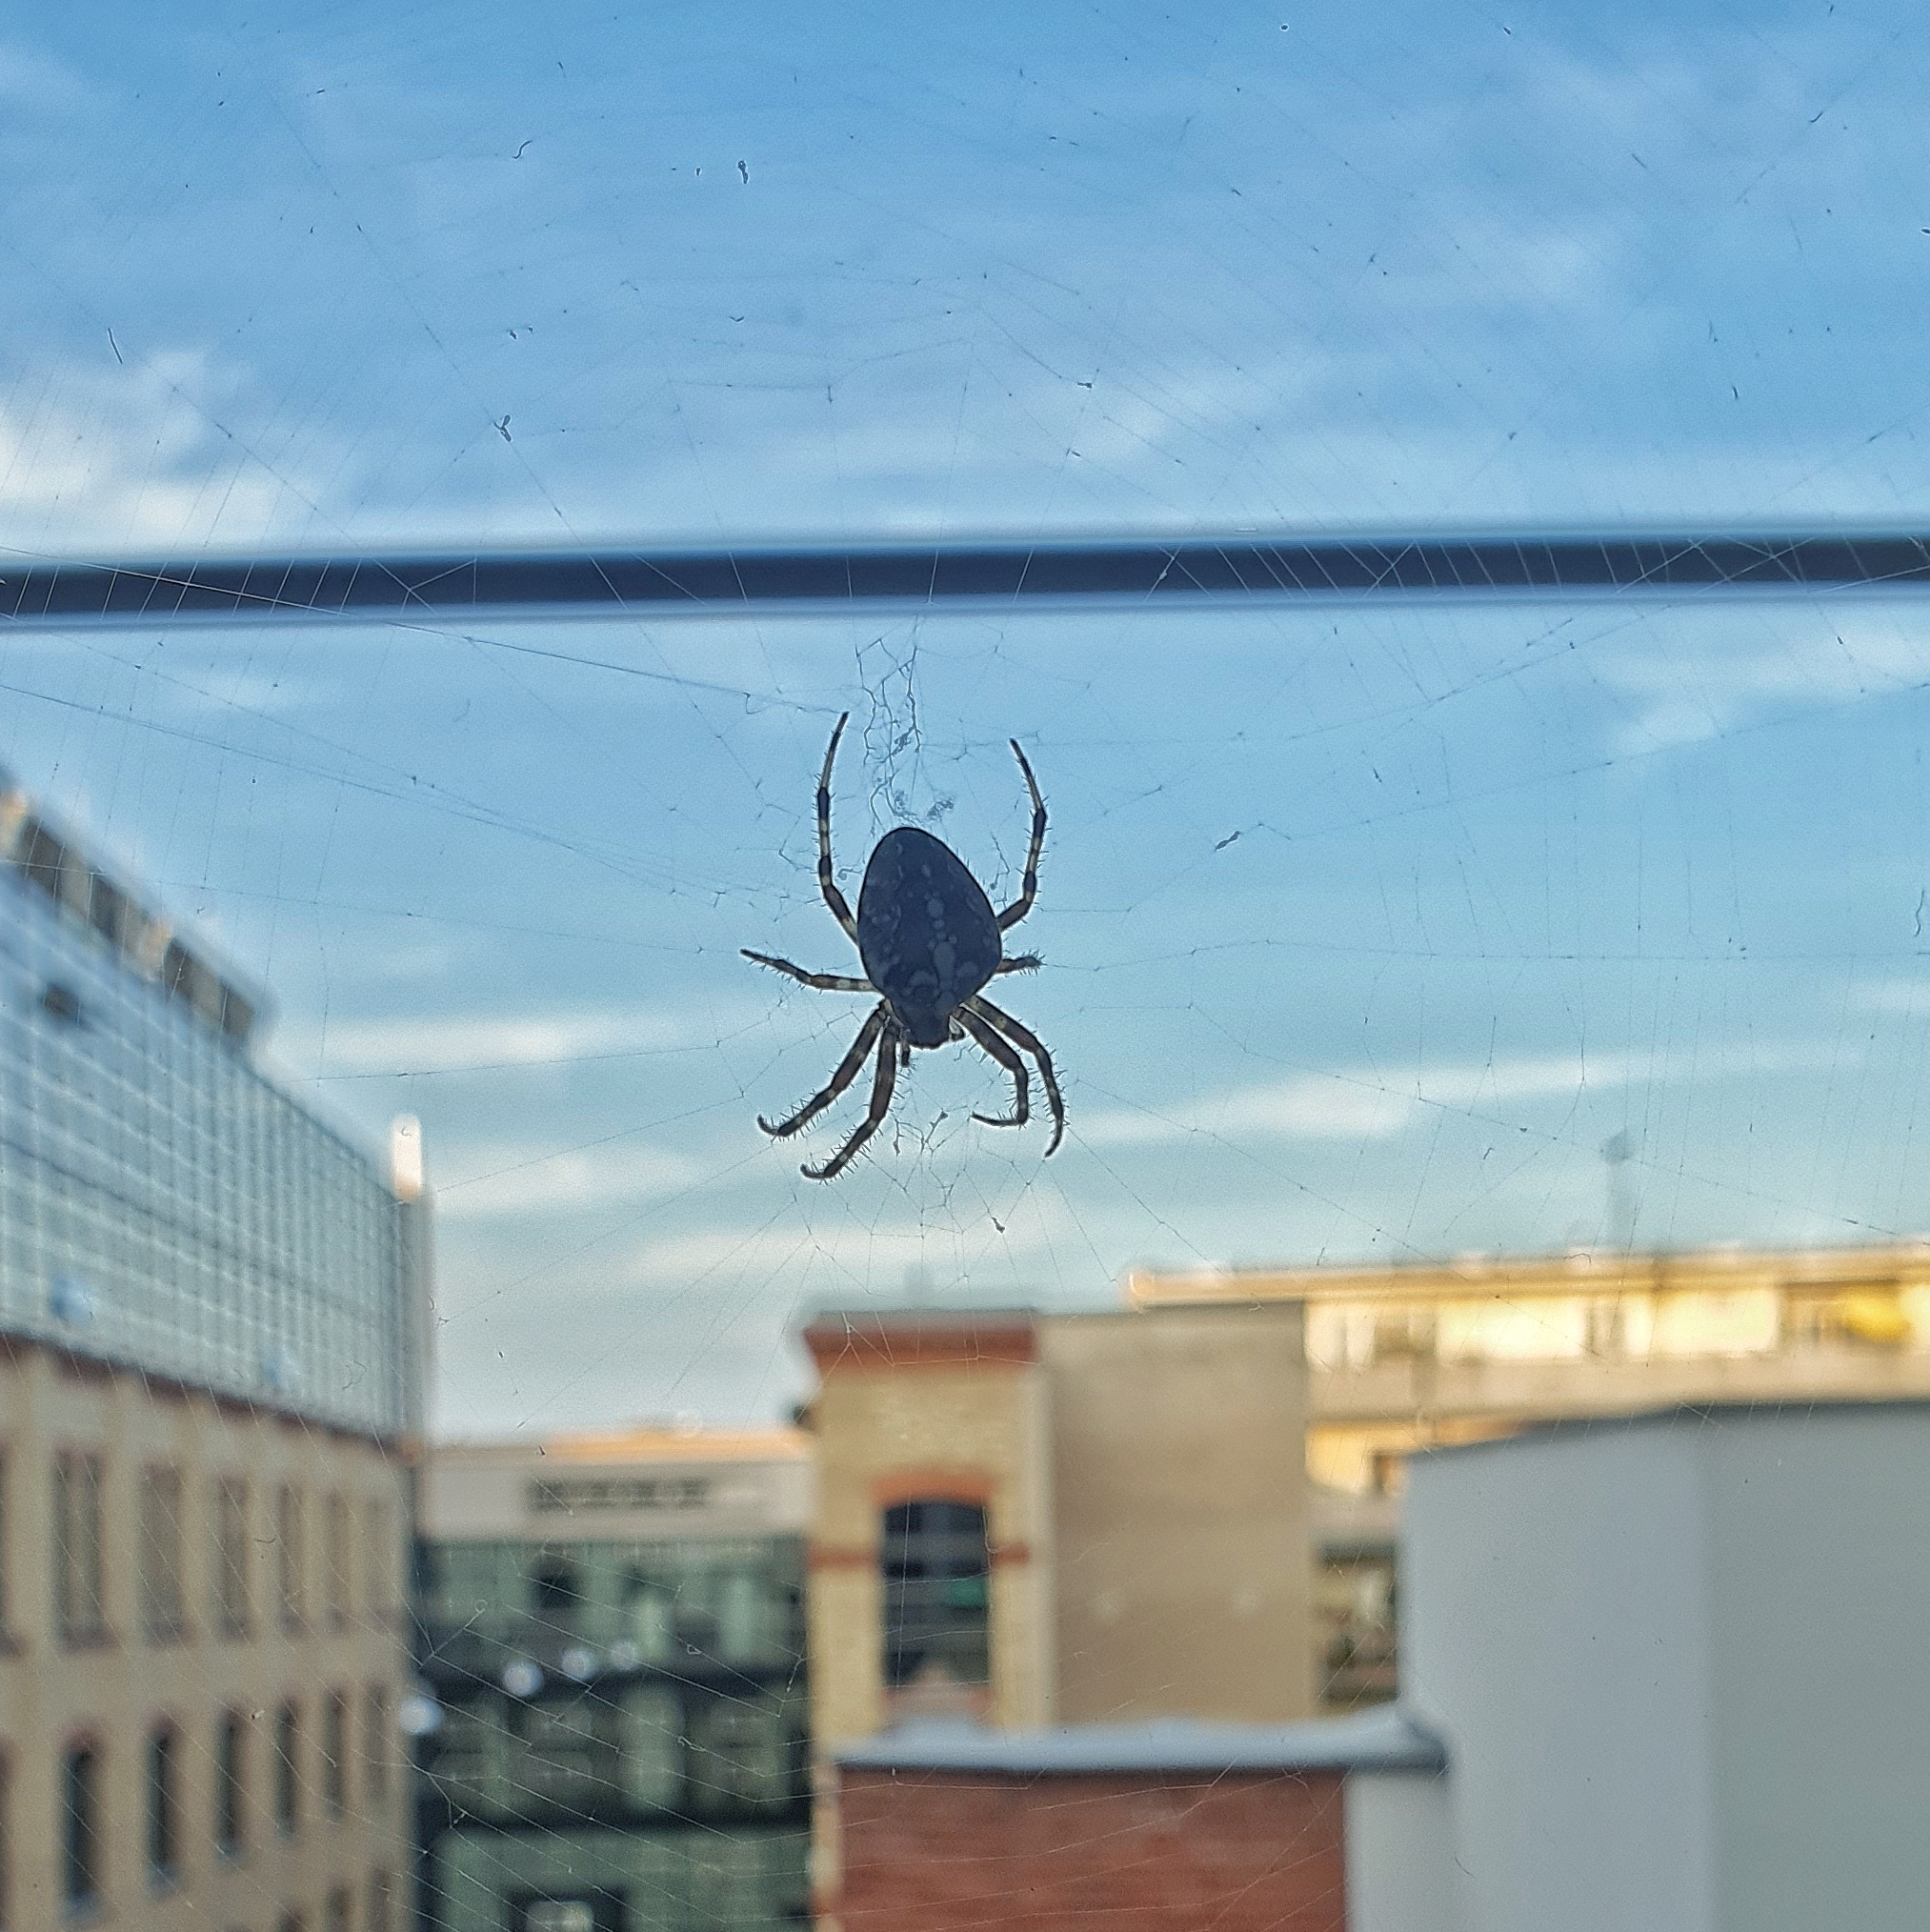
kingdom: Animalia
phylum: Arthropoda
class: Arachnida
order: Araneae
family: Araneidae
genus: Araneus
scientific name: Araneus diadematus
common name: Cross orbweaver
